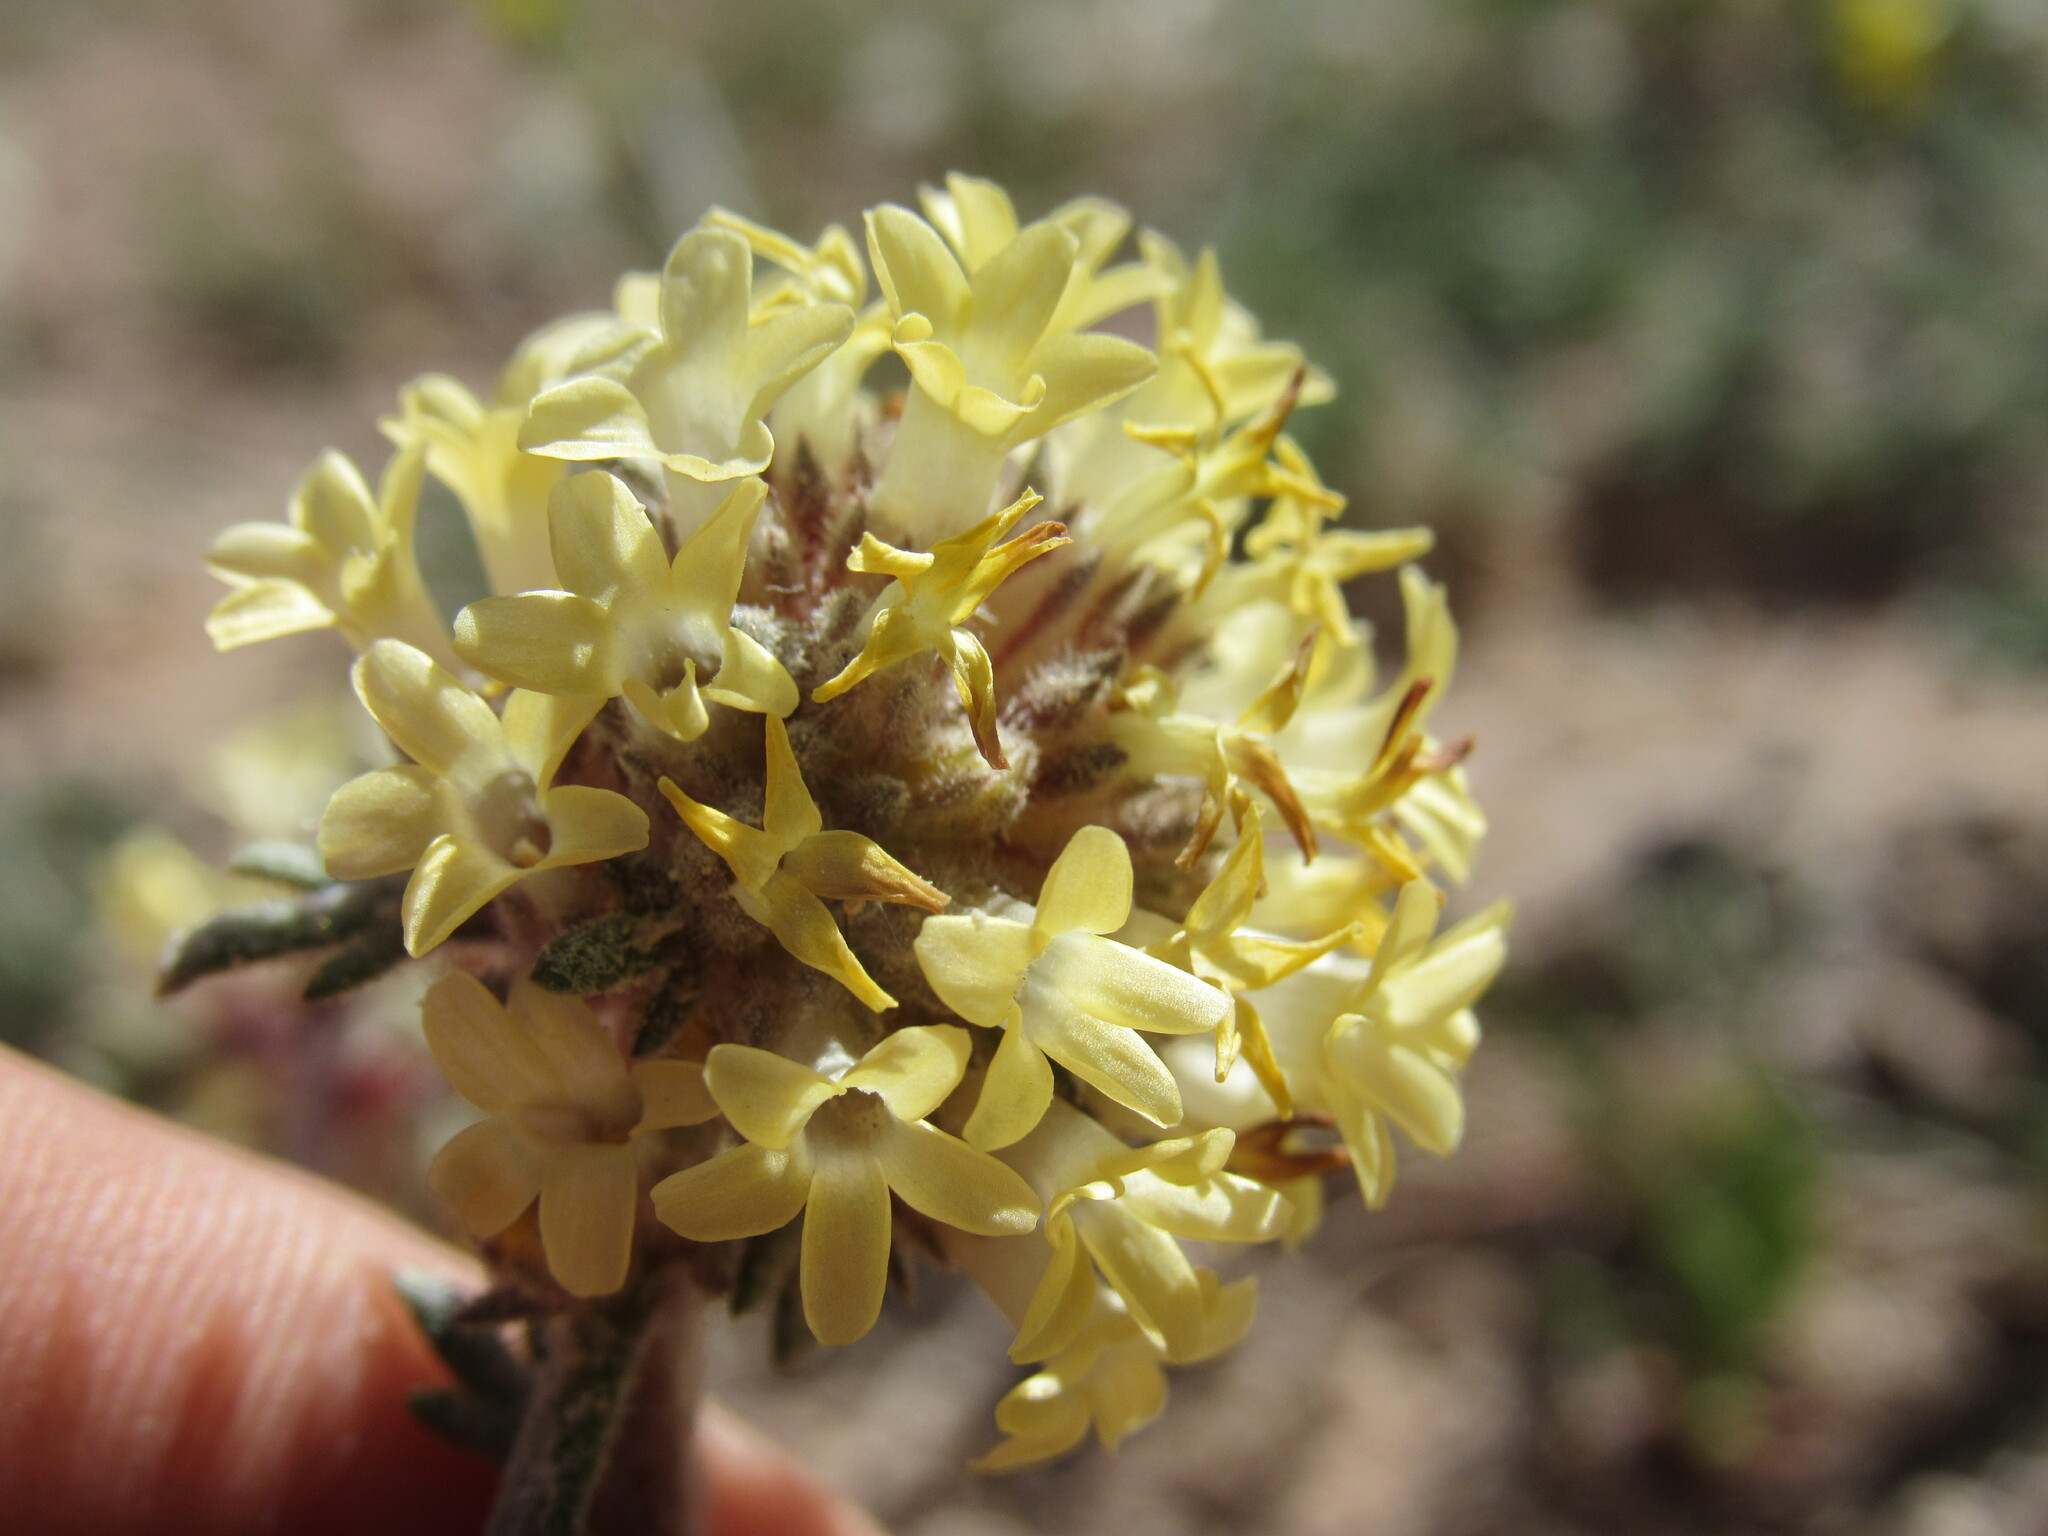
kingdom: Plantae
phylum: Tracheophyta
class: Magnoliopsida
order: Ericales
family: Polemoniaceae
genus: Ipomopsis
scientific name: Ipomopsis spicata
